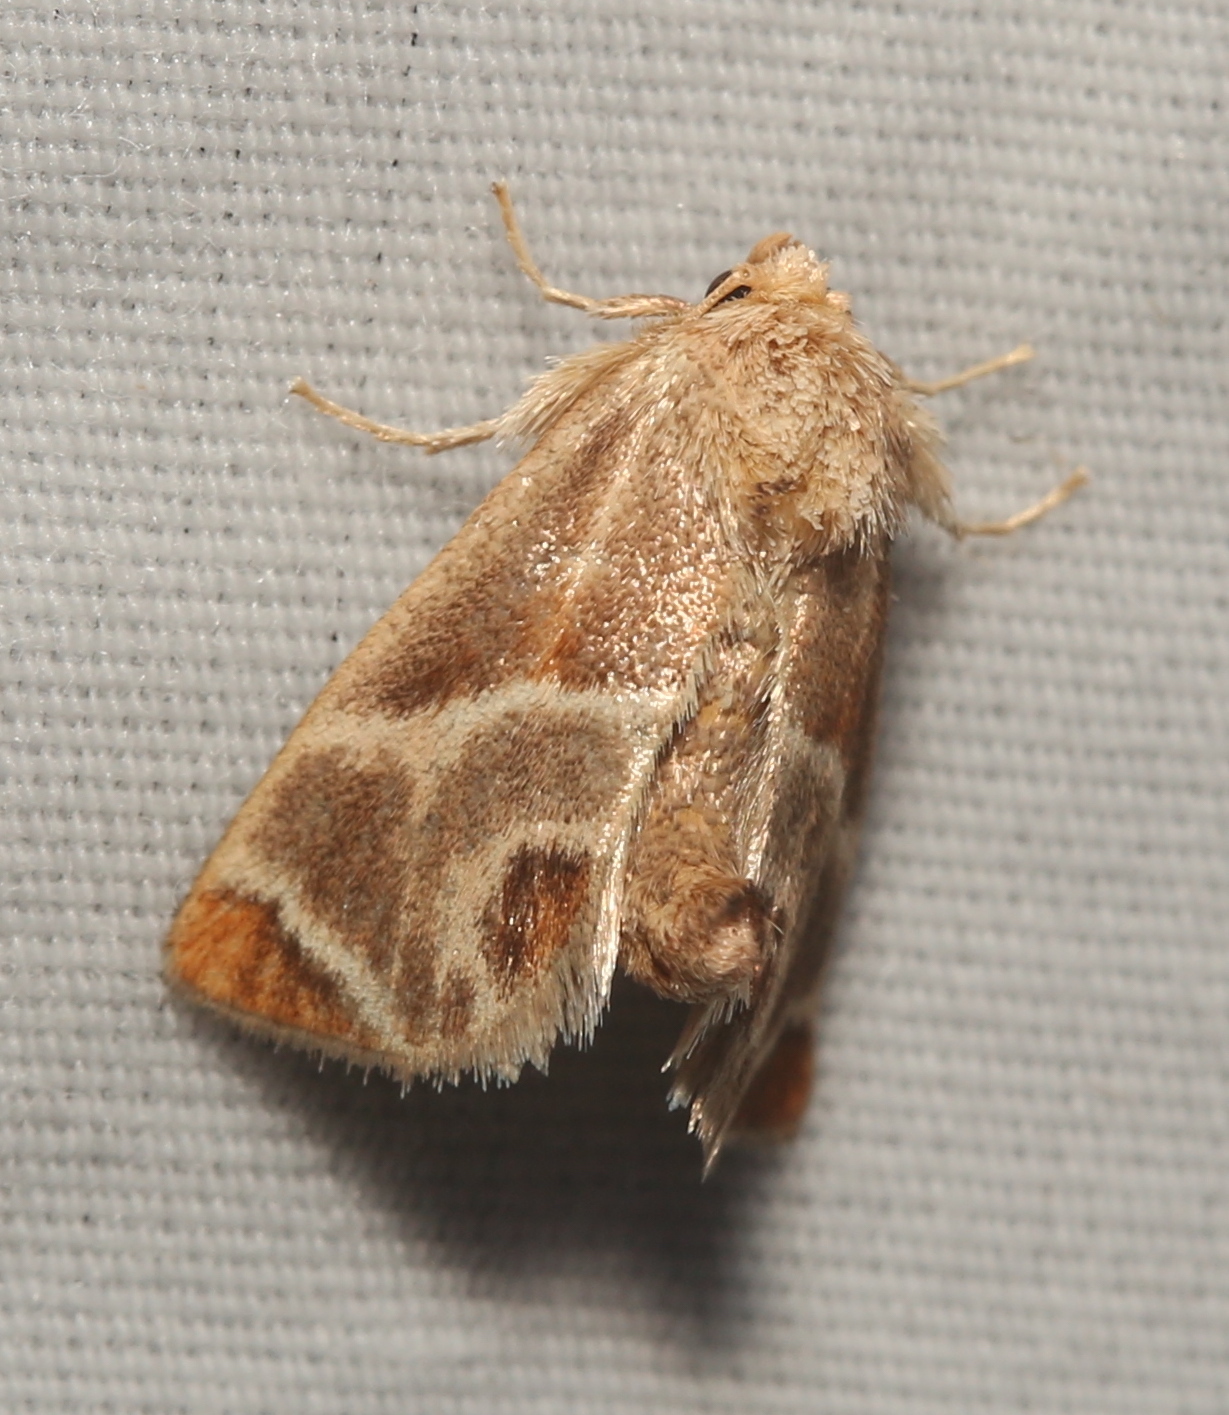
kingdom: Animalia
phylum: Arthropoda
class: Insecta
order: Lepidoptera
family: Limacodidae
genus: Apoda
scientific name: Apoda biguttata
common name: Shagreened slug moth
